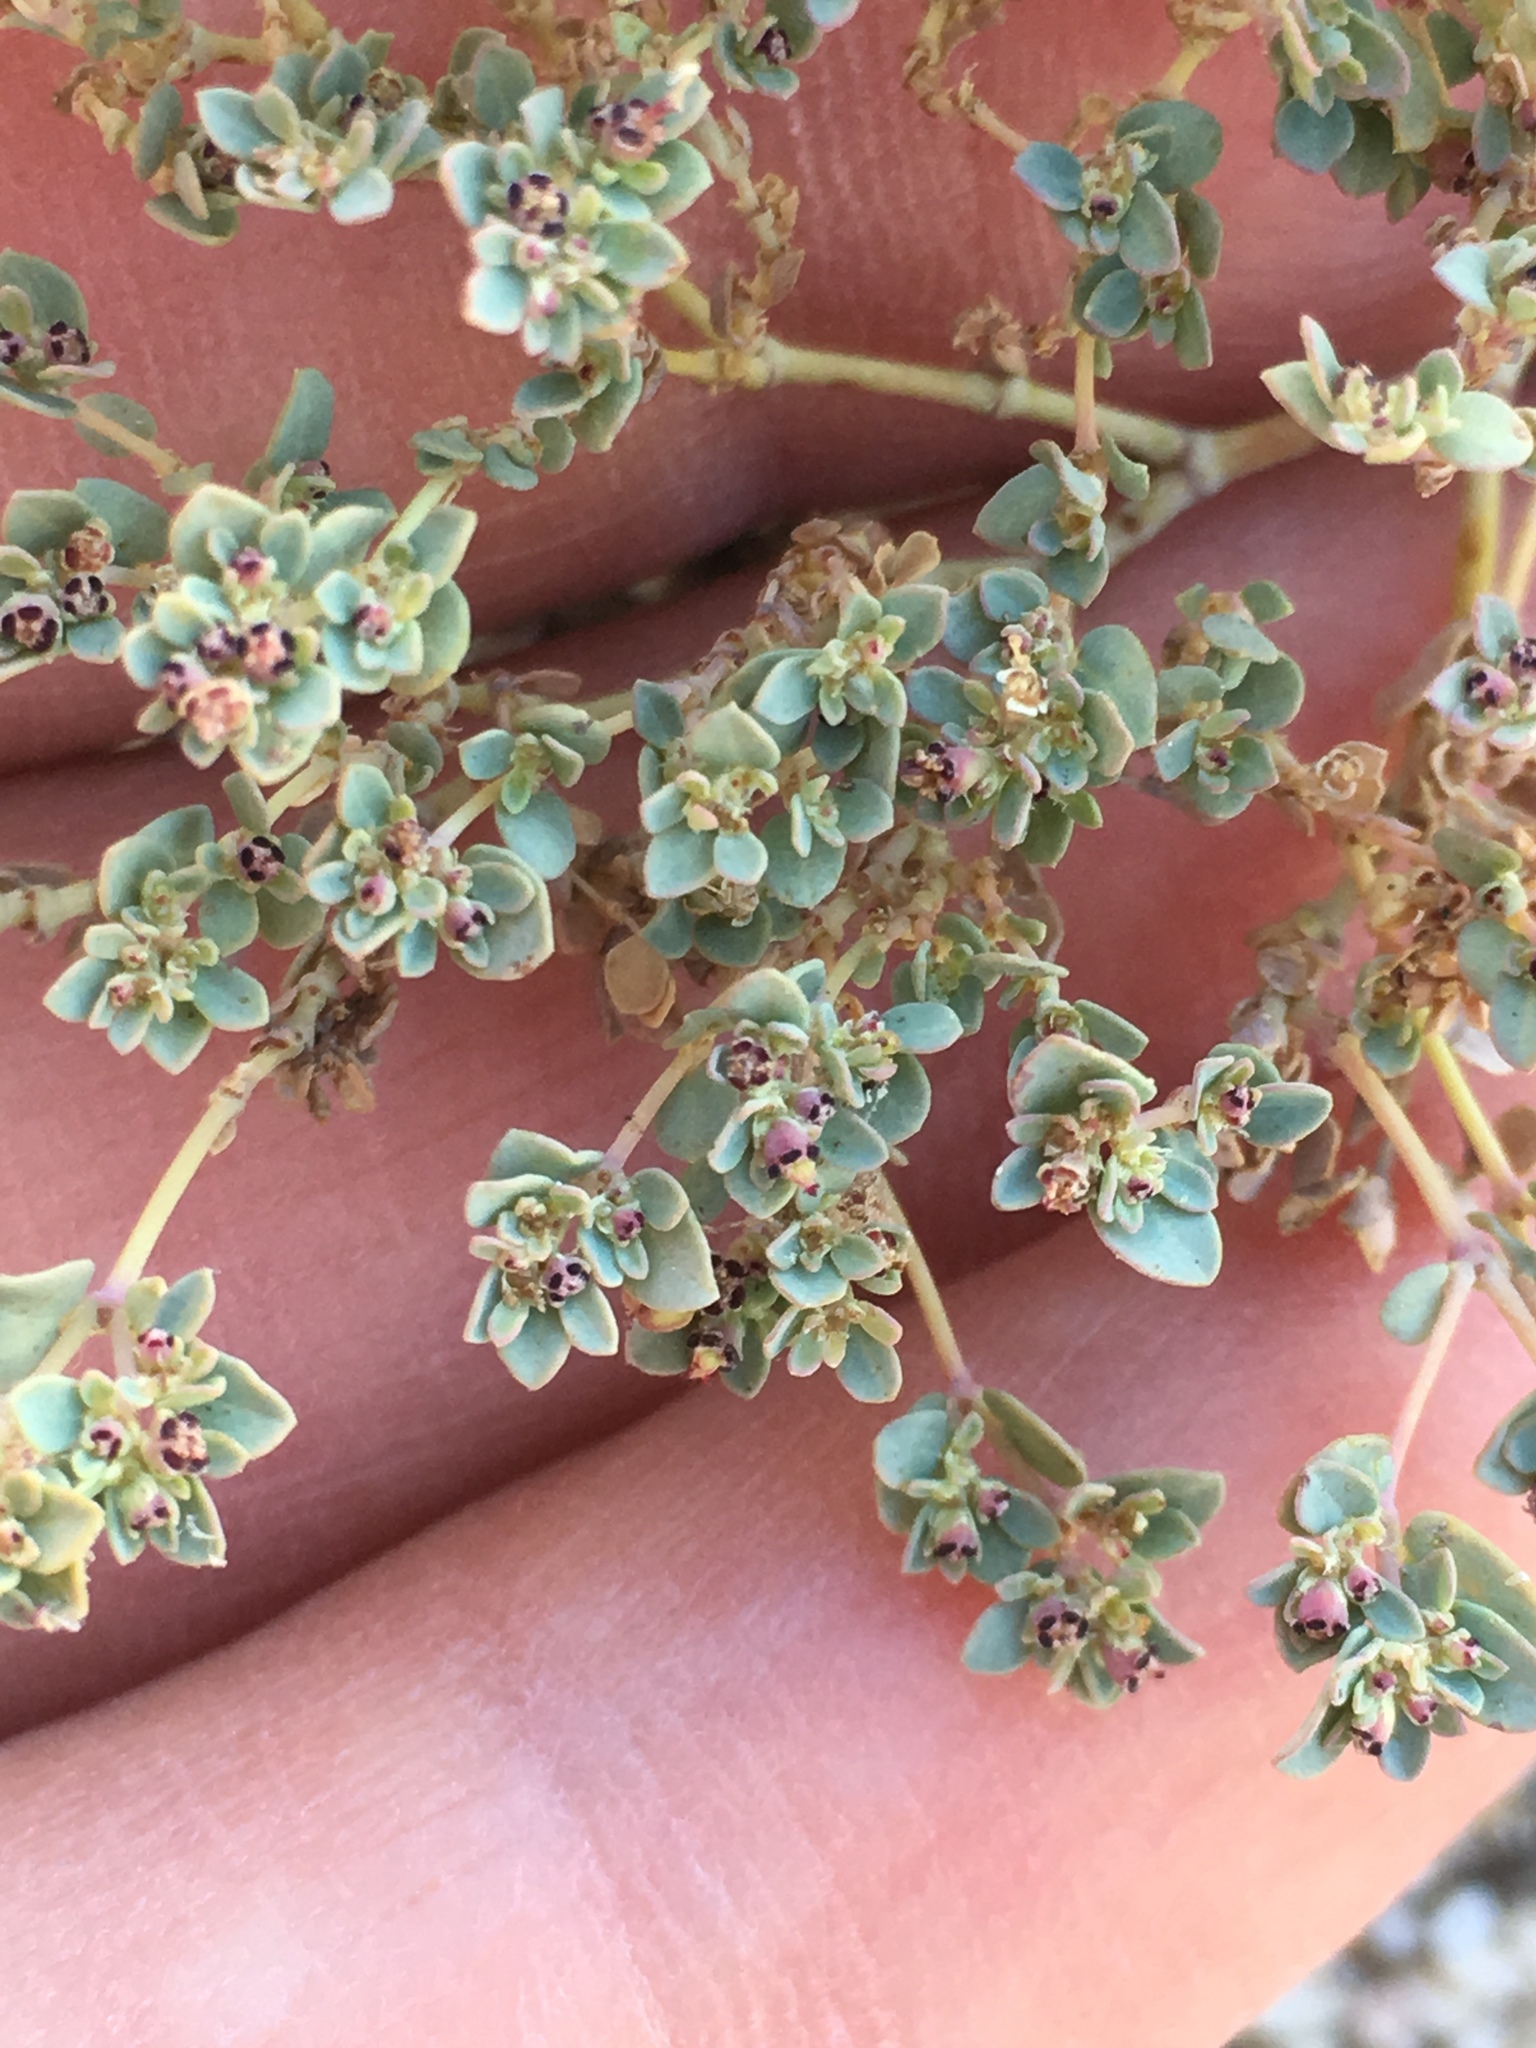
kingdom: Plantae
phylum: Tracheophyta
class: Magnoliopsida
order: Malpighiales
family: Euphorbiaceae
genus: Euphorbia
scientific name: Euphorbia polycarpa
